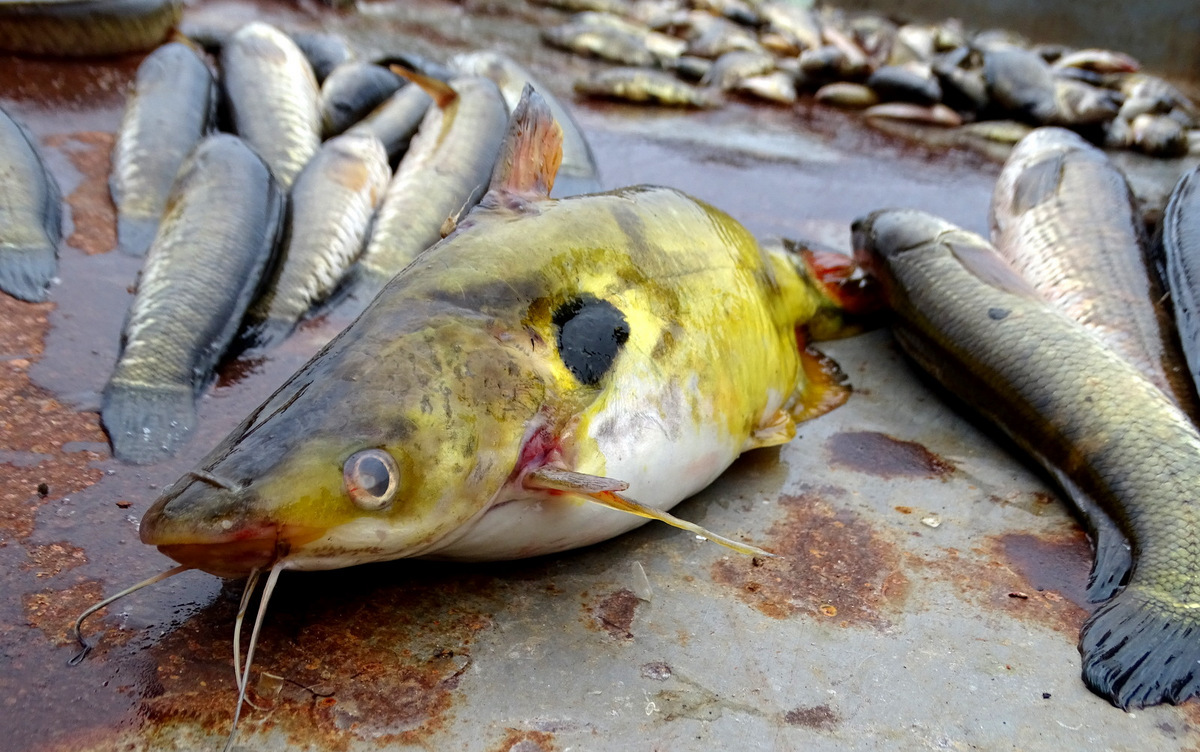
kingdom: Animalia
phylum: Chordata
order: Siluriformes
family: Bagridae
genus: Horabagrus
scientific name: Horabagrus brachysoma
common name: Bulls eye catfish
